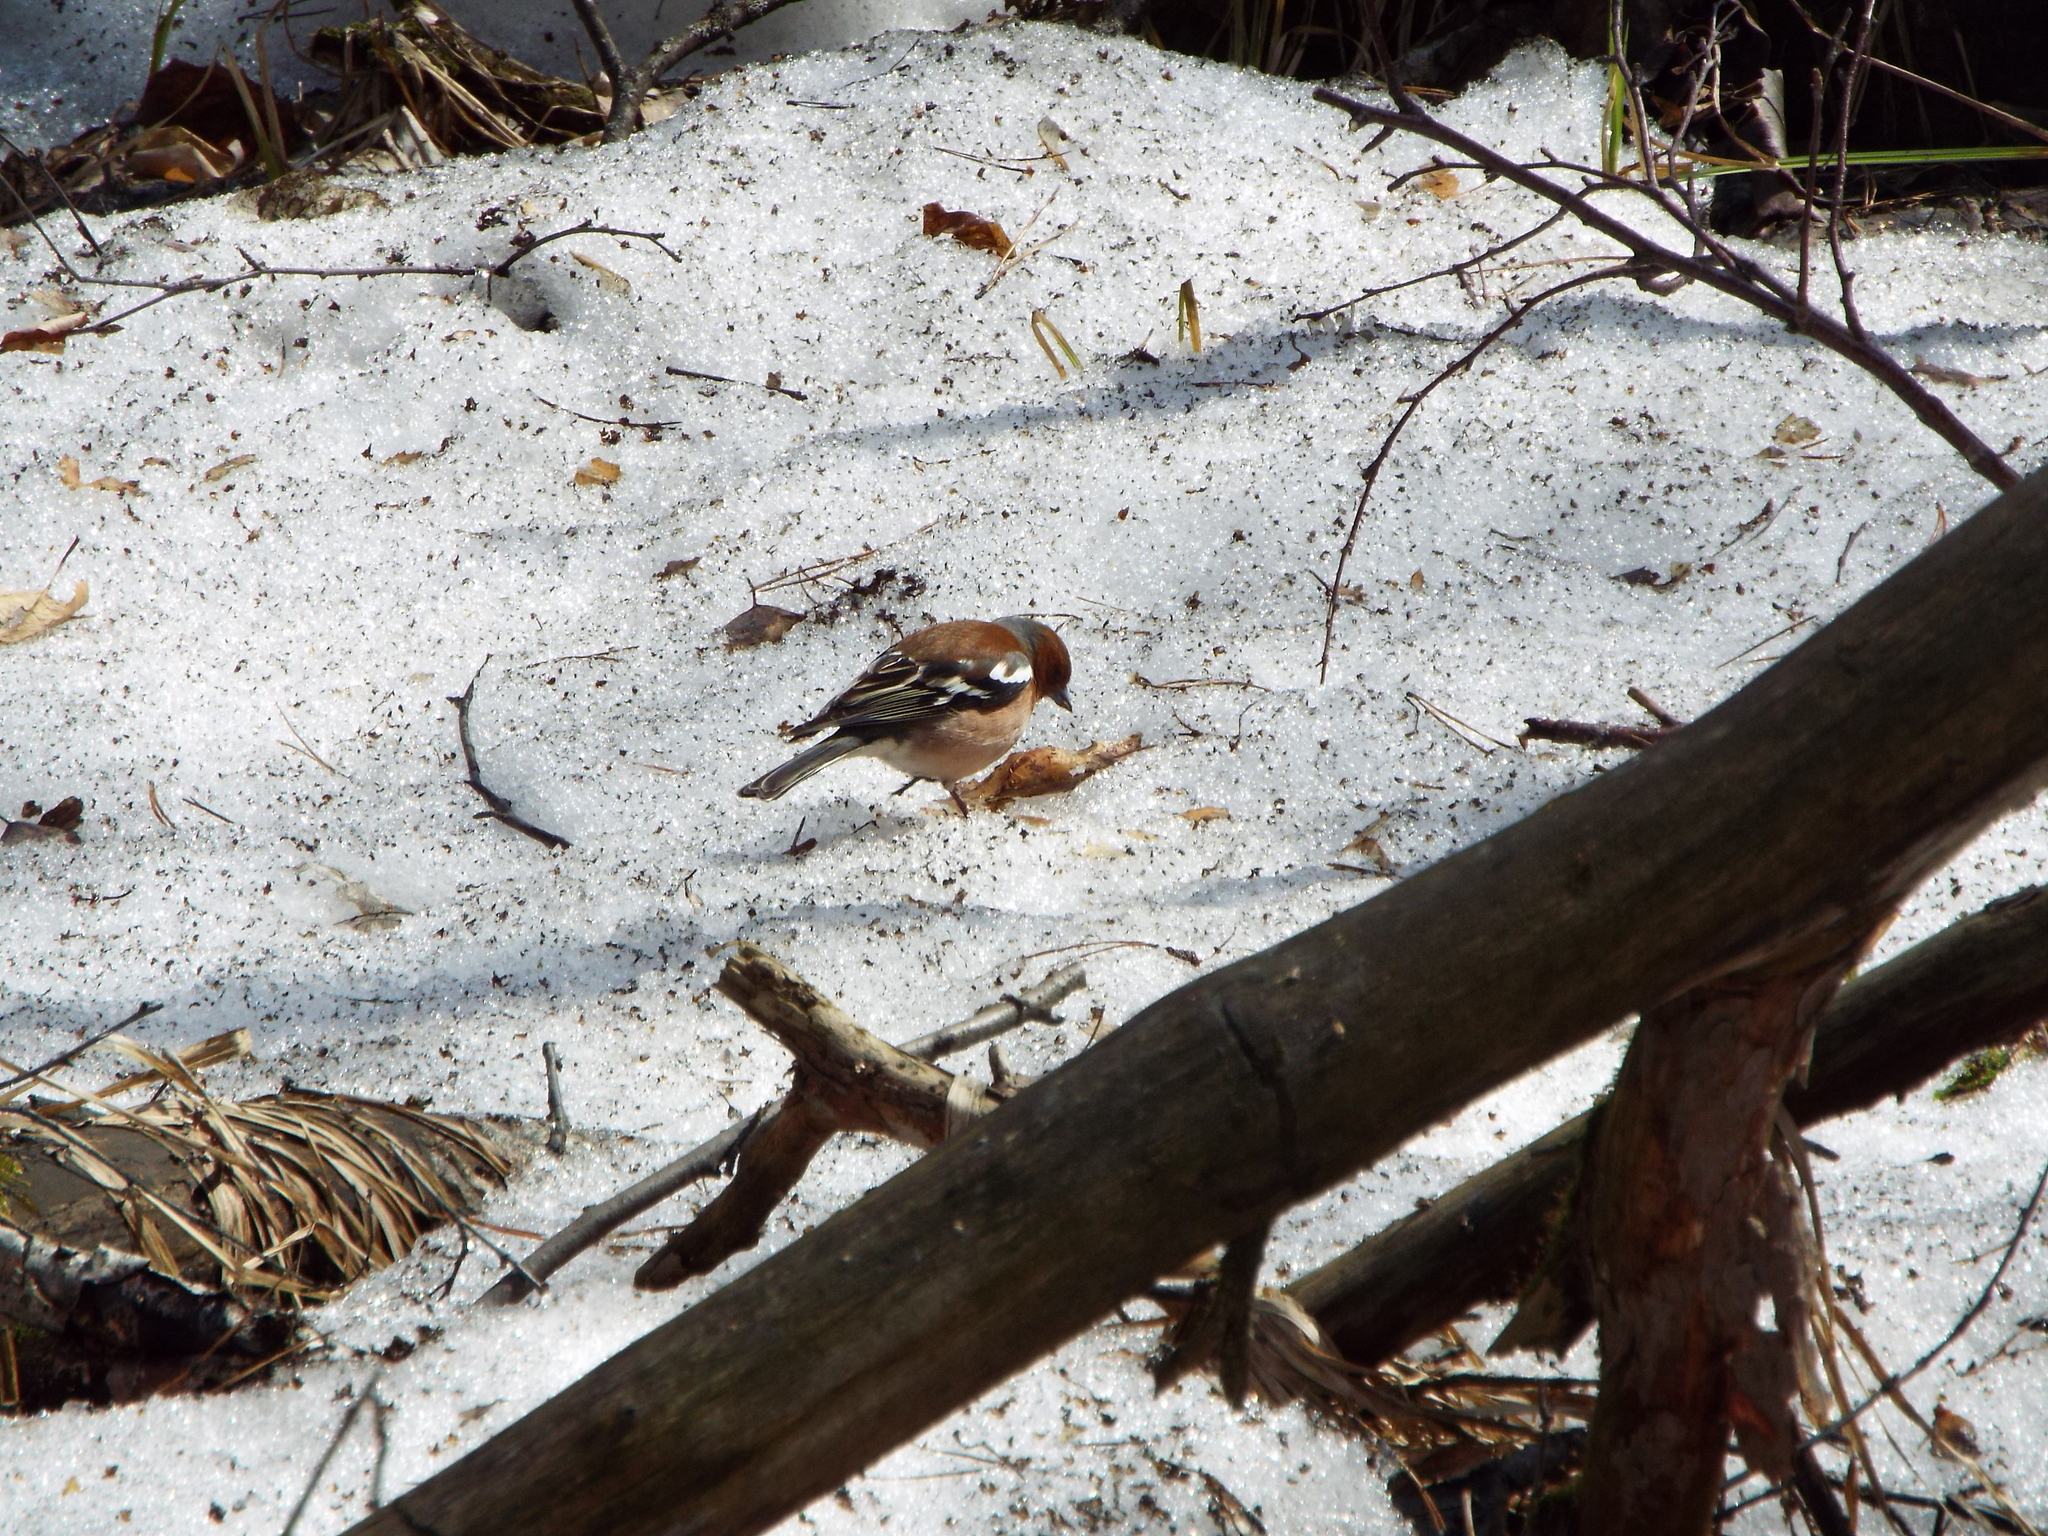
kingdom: Animalia
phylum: Chordata
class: Aves
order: Passeriformes
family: Fringillidae
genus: Fringilla
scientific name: Fringilla coelebs
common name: Common chaffinch
